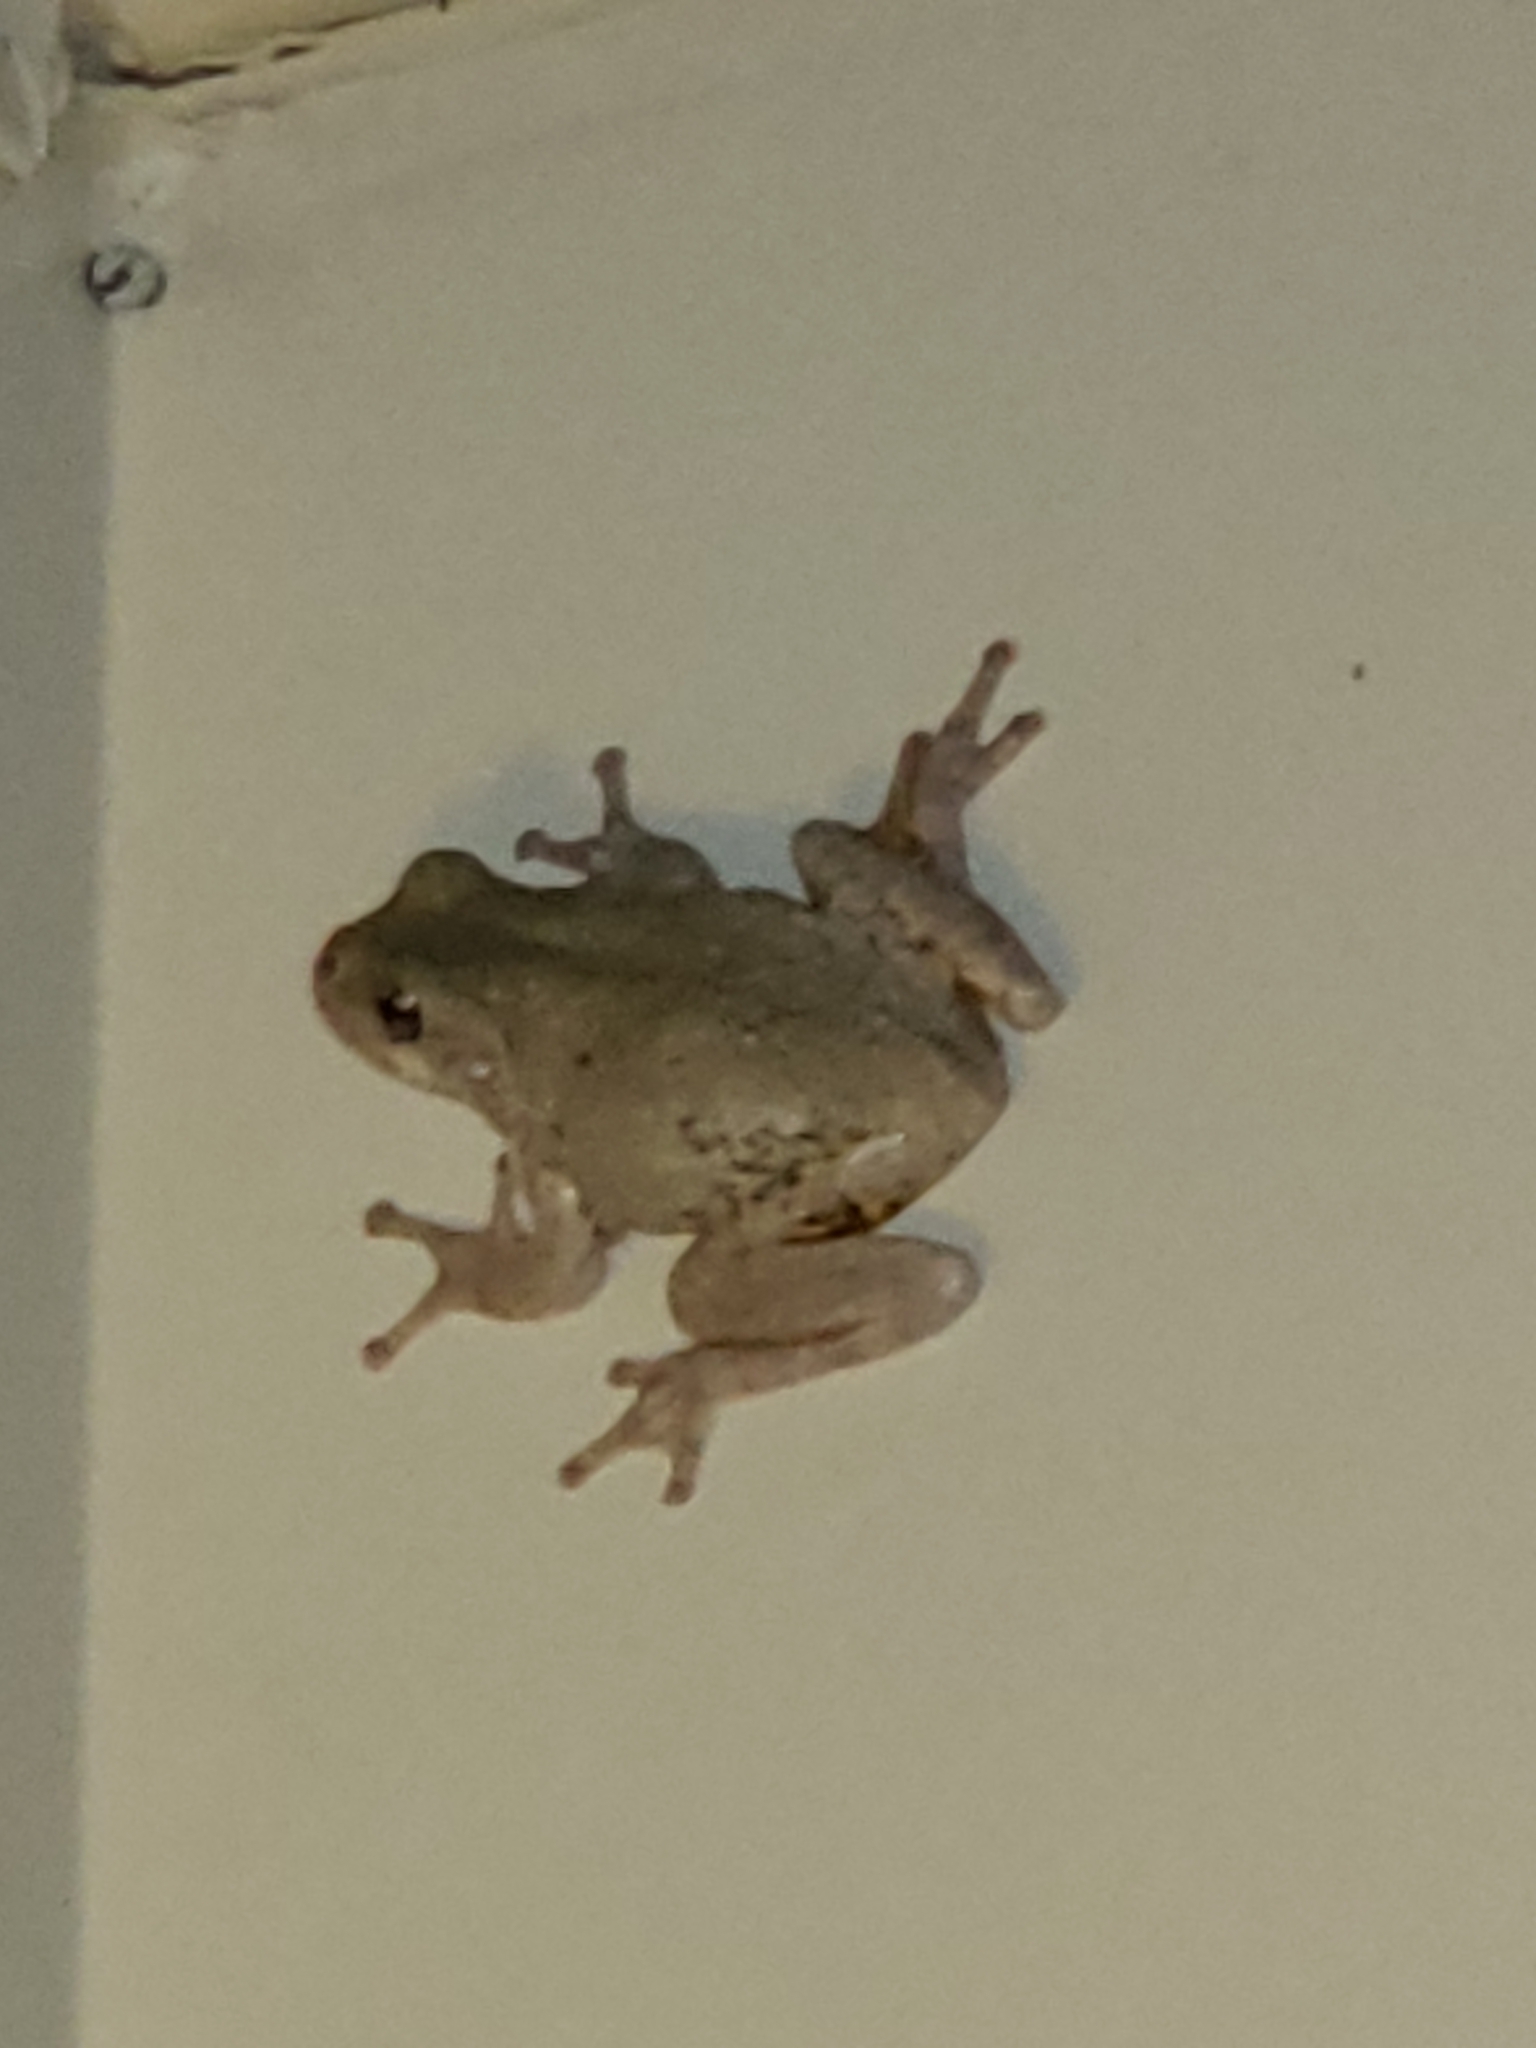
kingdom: Animalia
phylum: Chordata
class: Amphibia
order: Anura
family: Hylidae
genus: Hyla
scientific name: Hyla
